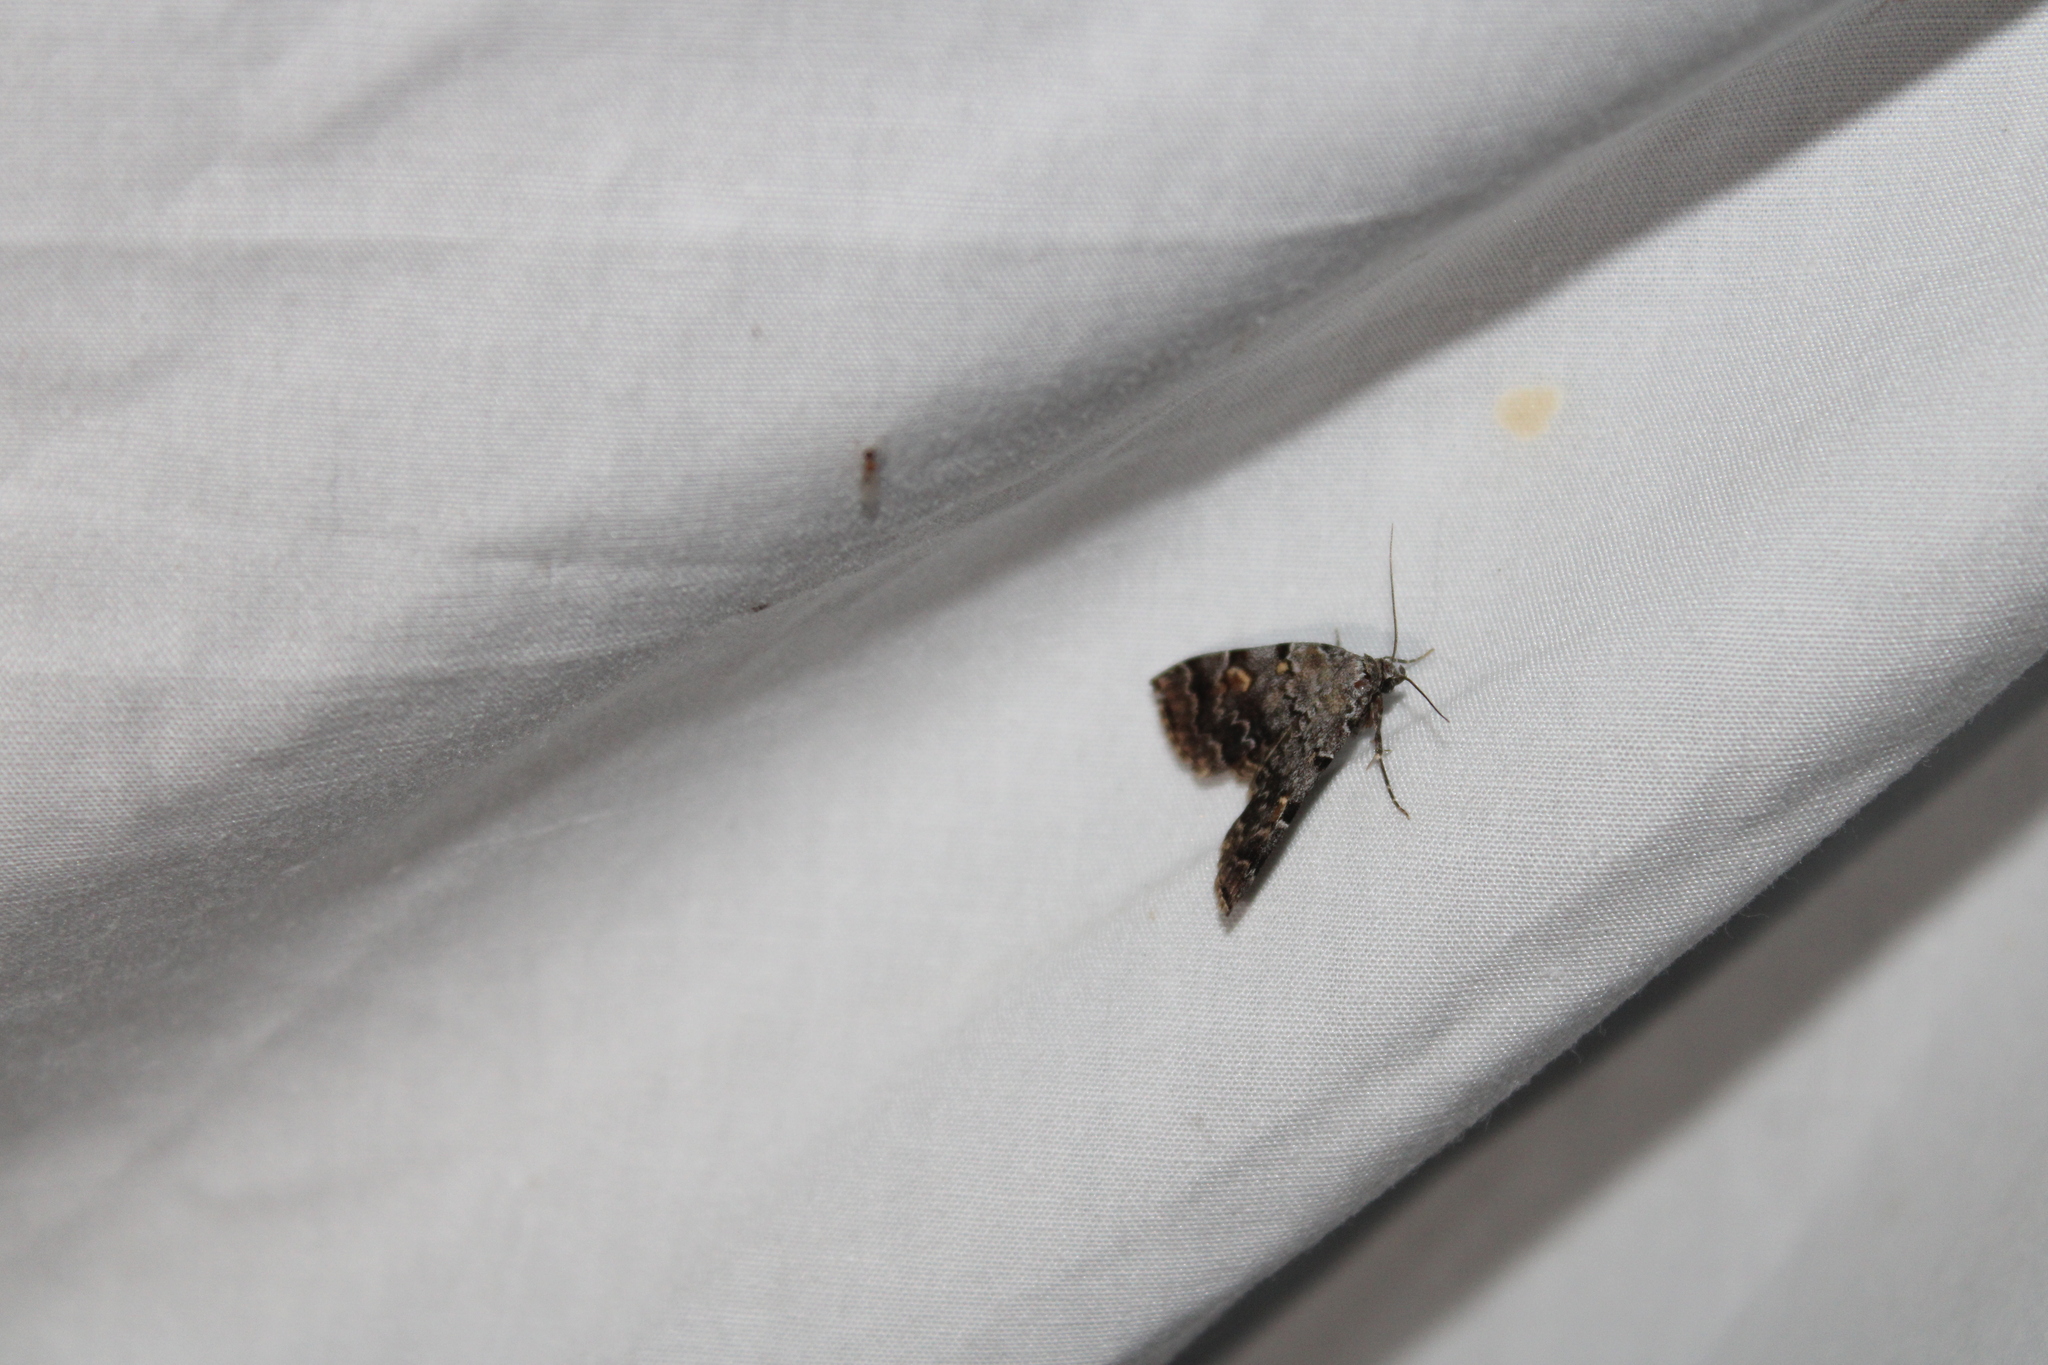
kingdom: Animalia
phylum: Arthropoda
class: Insecta
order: Lepidoptera
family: Erebidae
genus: Idia
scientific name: Idia americalis
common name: American idia moth
